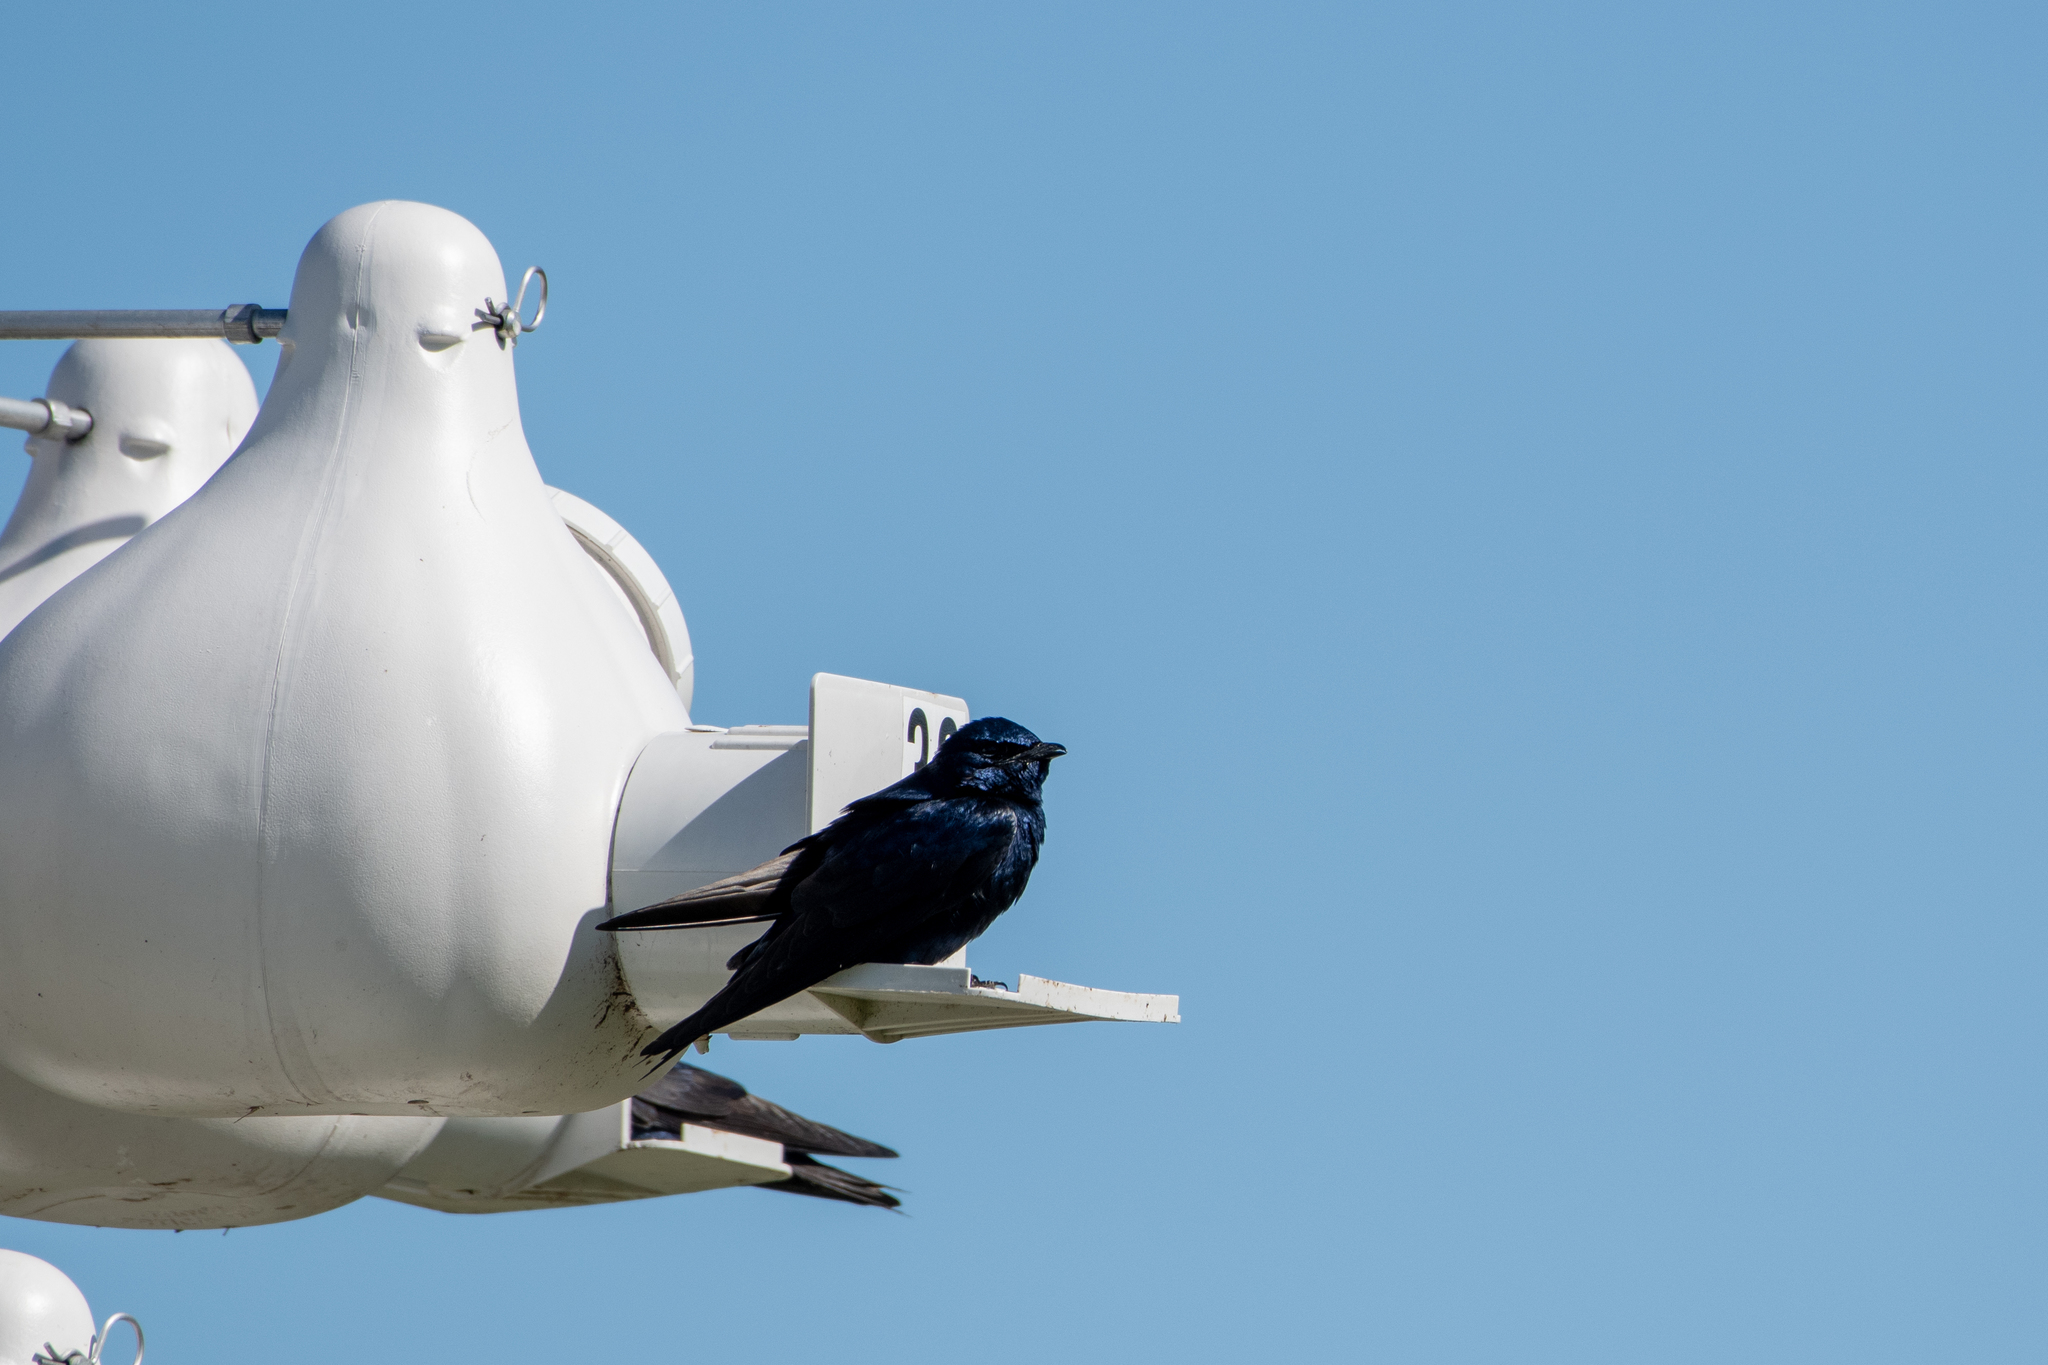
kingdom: Animalia
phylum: Chordata
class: Aves
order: Passeriformes
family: Hirundinidae
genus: Progne
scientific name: Progne subis
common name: Purple martin
